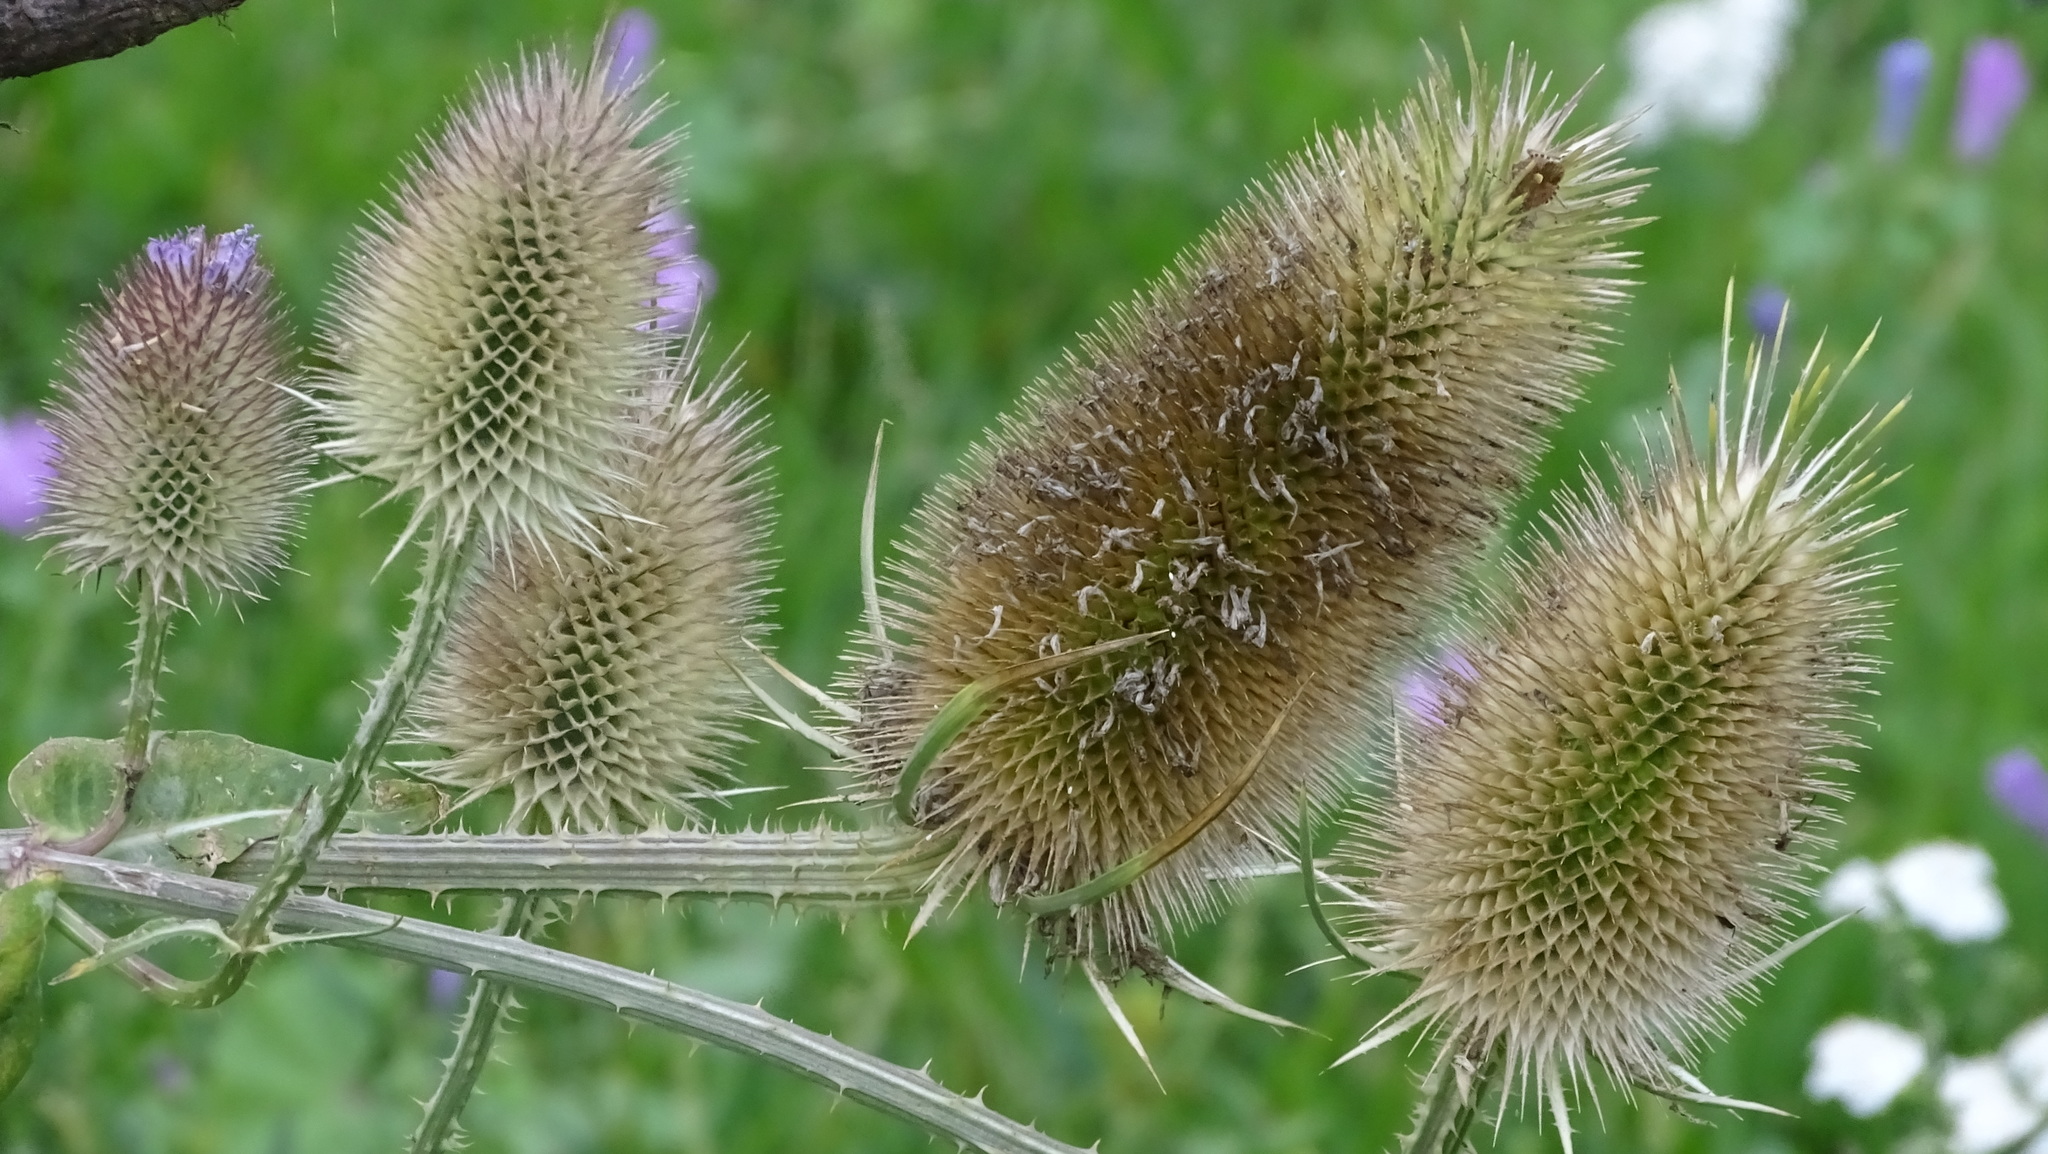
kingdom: Plantae
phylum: Tracheophyta
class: Magnoliopsida
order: Dipsacales
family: Caprifoliaceae
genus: Dipsacus
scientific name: Dipsacus fullonum
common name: Teasel
